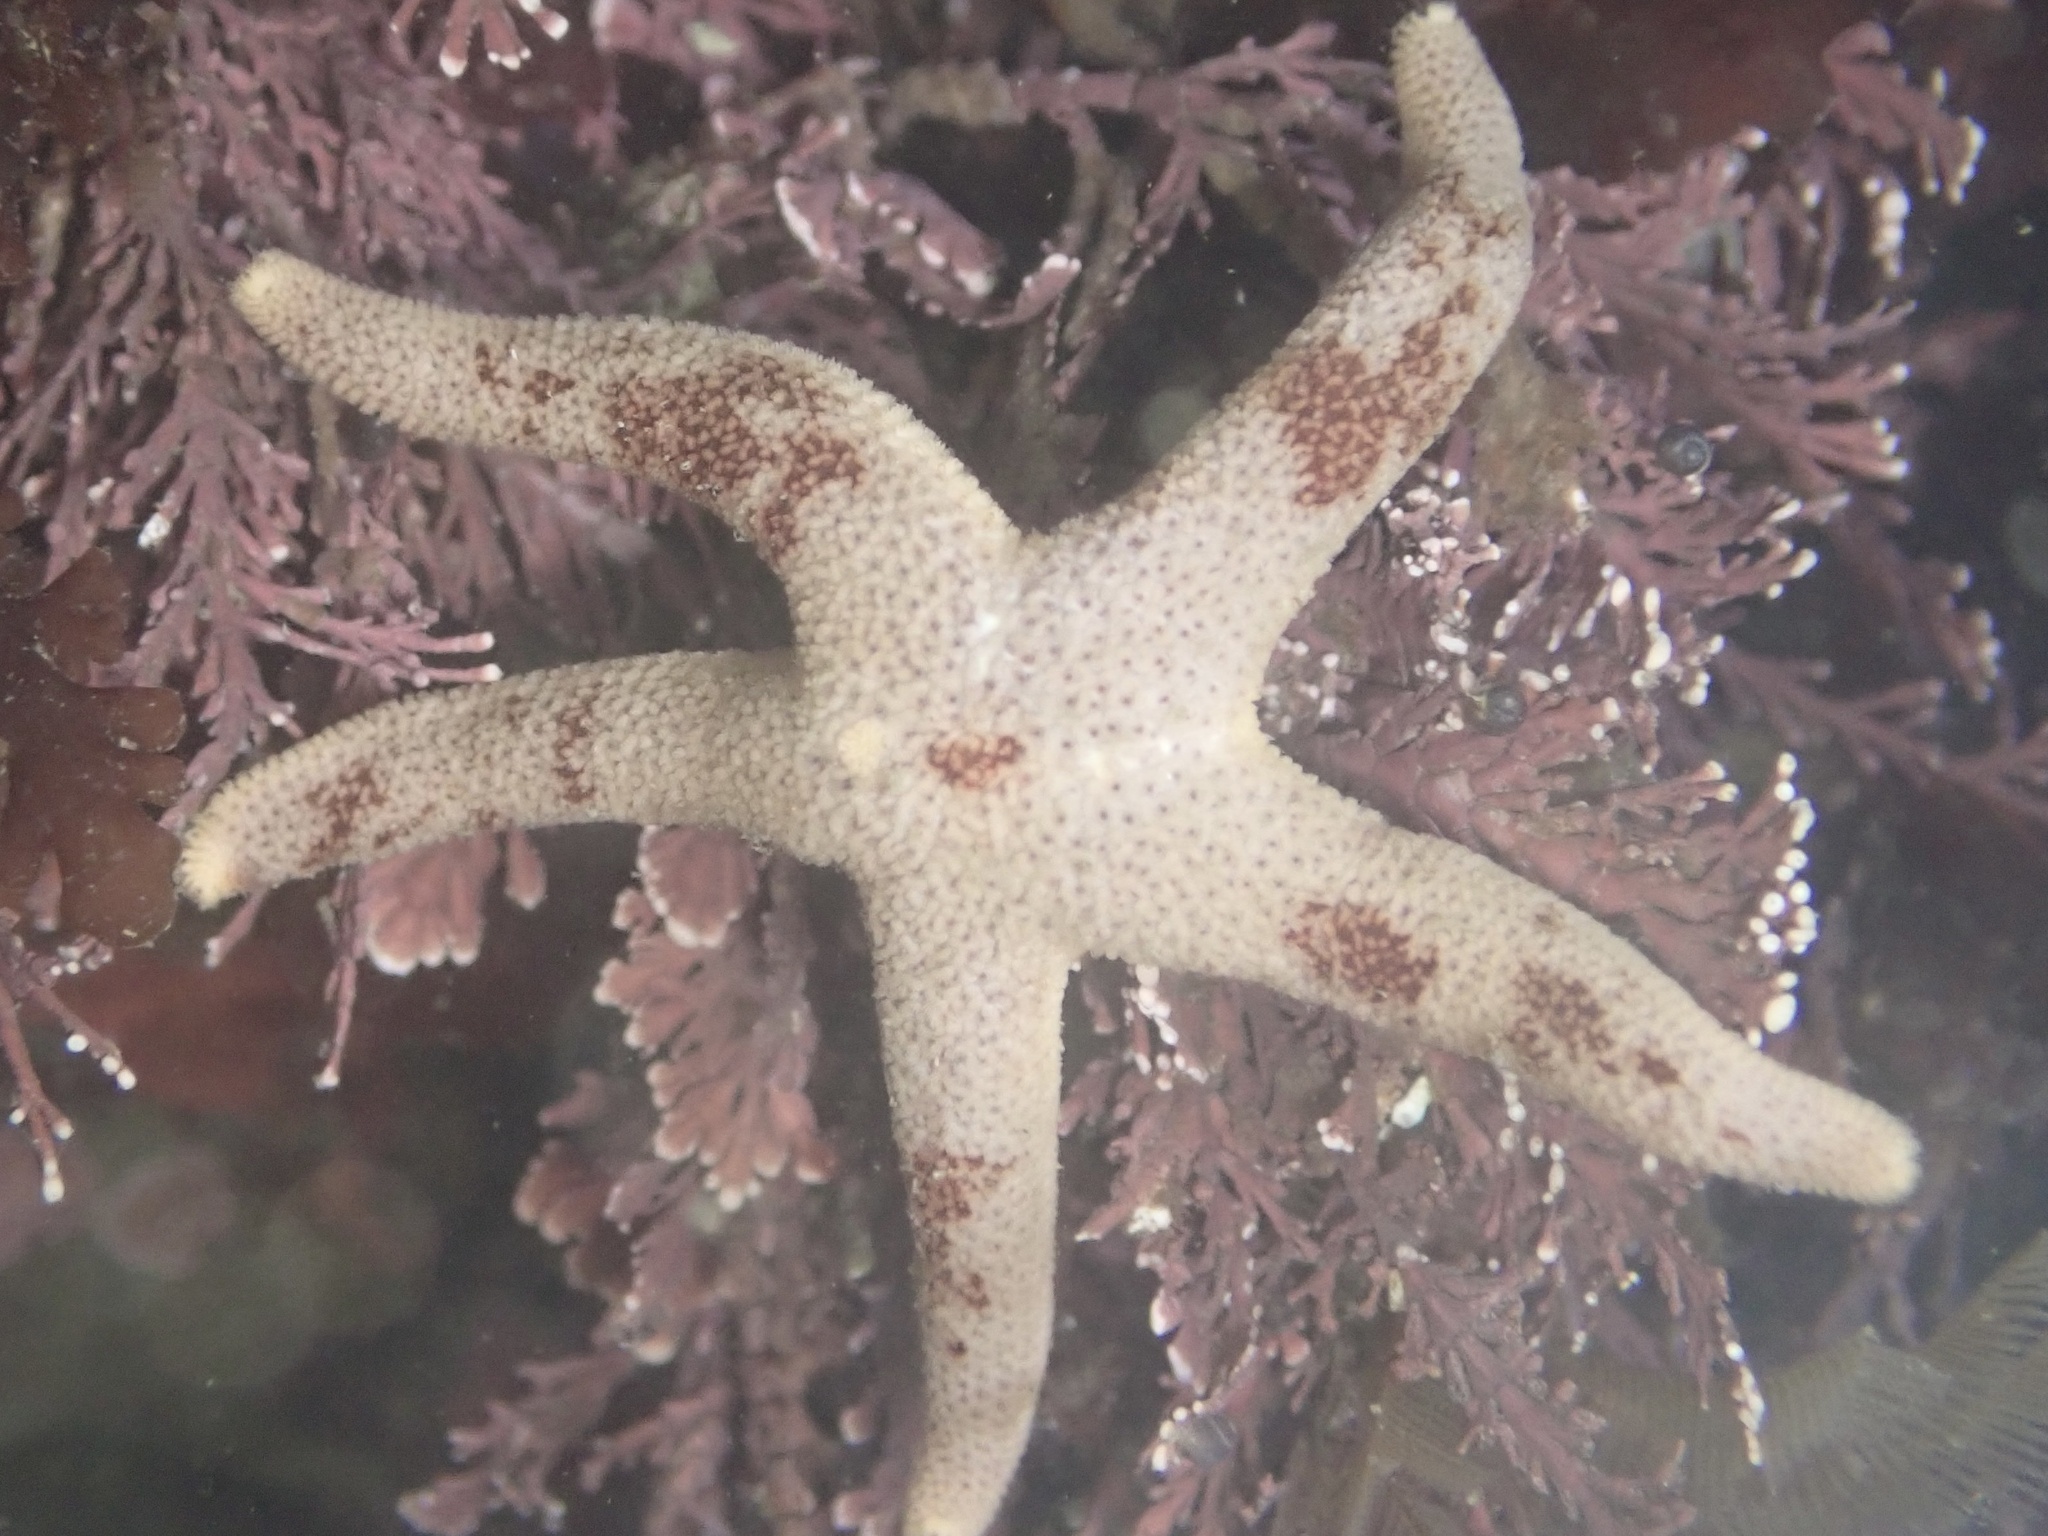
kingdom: Animalia
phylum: Echinodermata
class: Asteroidea
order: Spinulosida
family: Echinasteridae
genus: Henricia
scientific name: Henricia pumila
